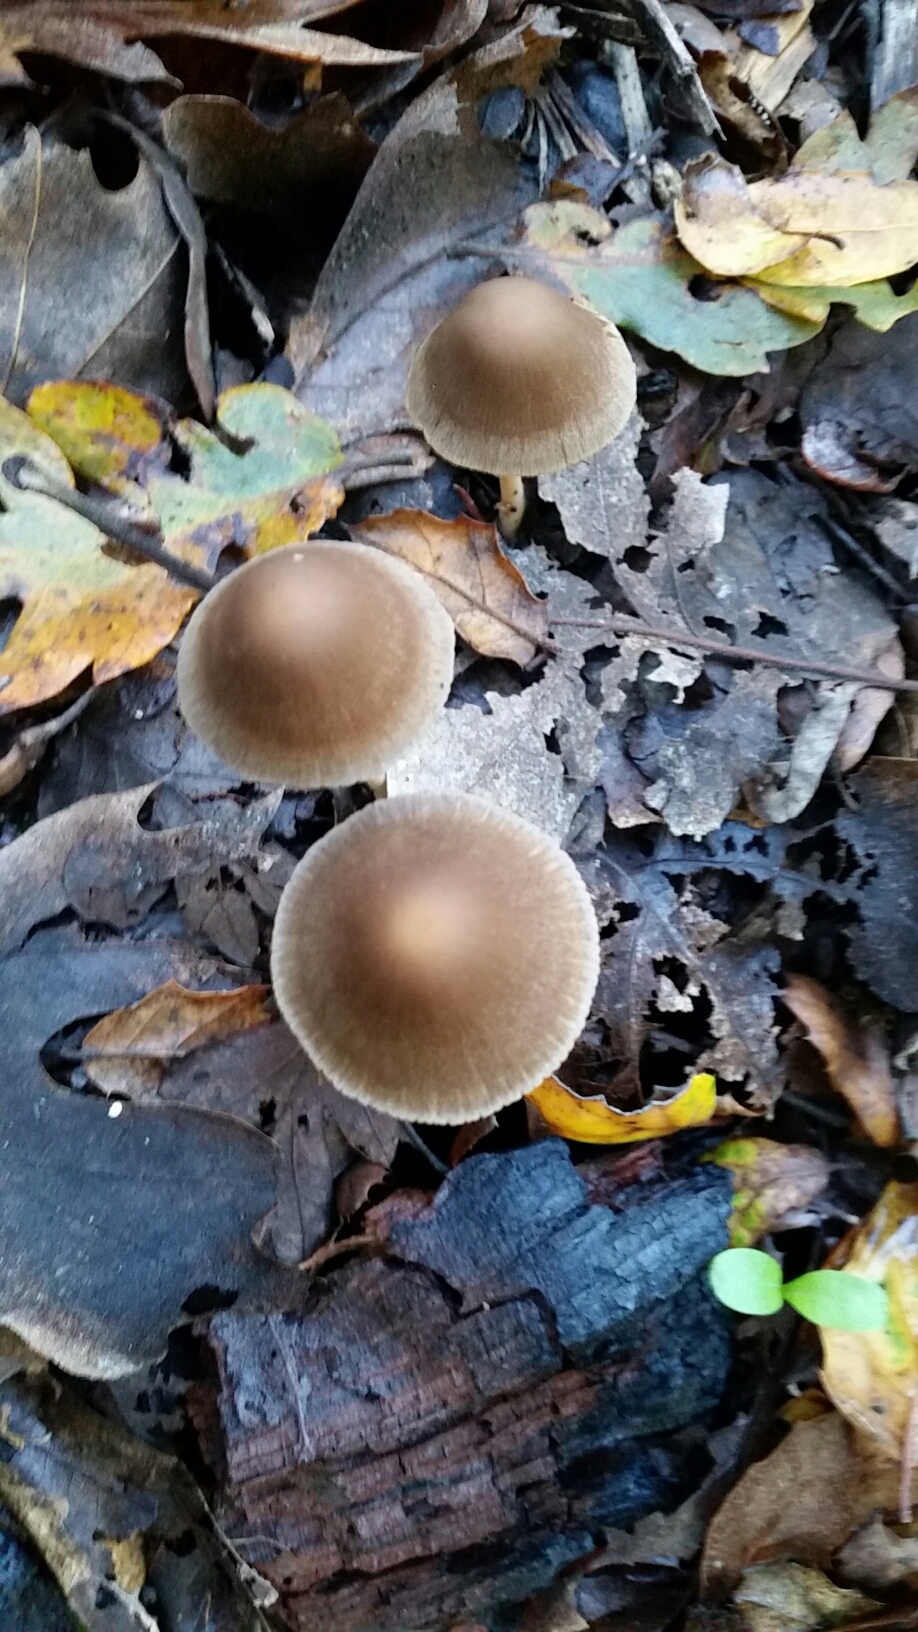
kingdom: Fungi
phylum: Basidiomycota
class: Agaricomycetes
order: Agaricales
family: Psathyrellaceae
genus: Psathyrella
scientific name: Psathyrella longipes
